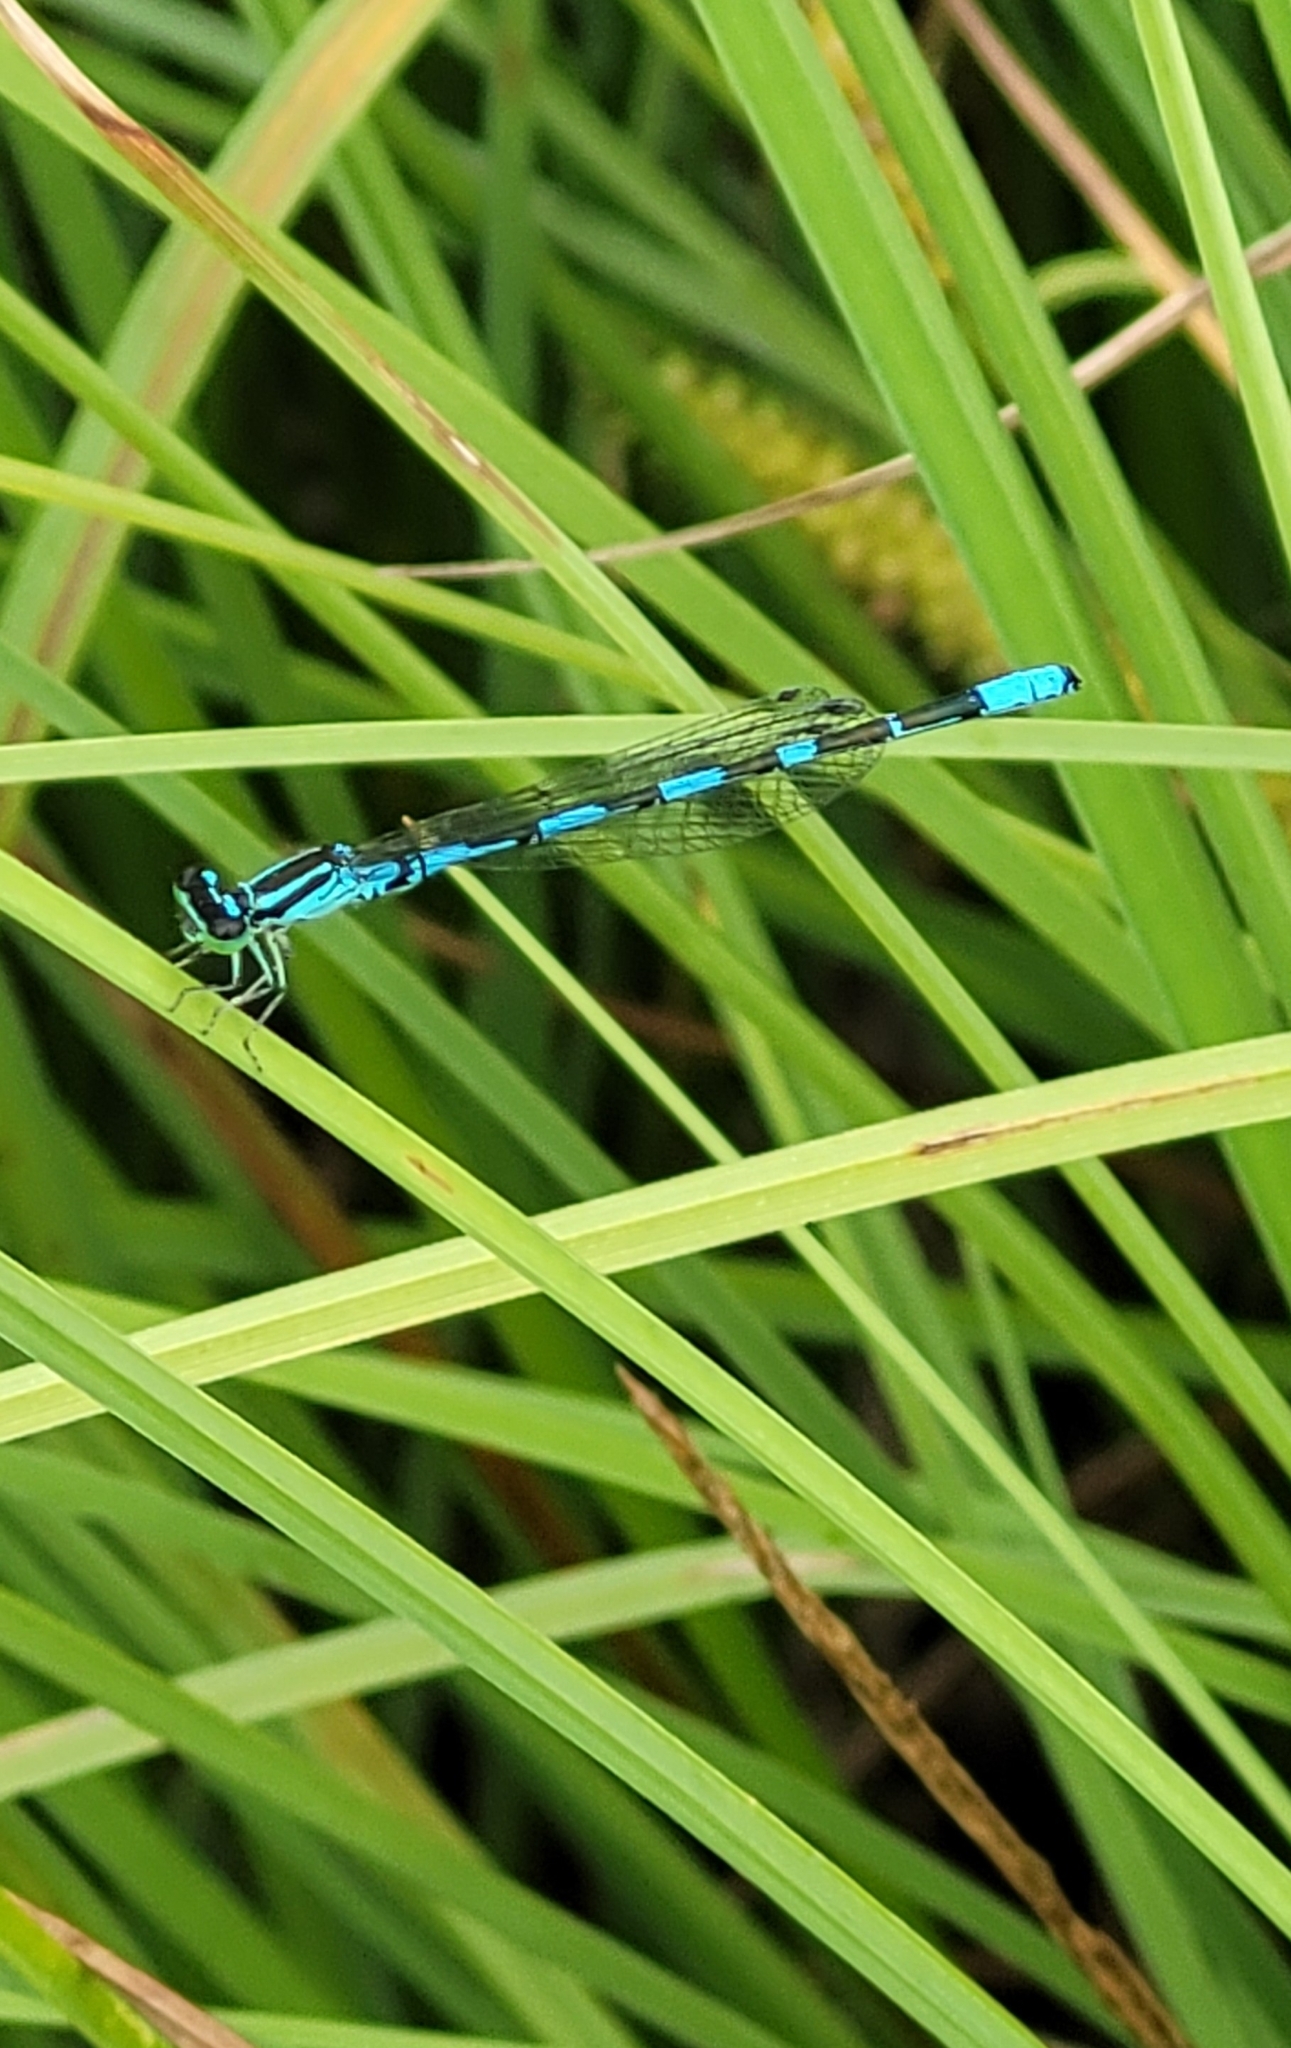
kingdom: Animalia
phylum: Arthropoda
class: Insecta
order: Odonata
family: Coenagrionidae
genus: Coenagrion
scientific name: Coenagrion johanssoni
